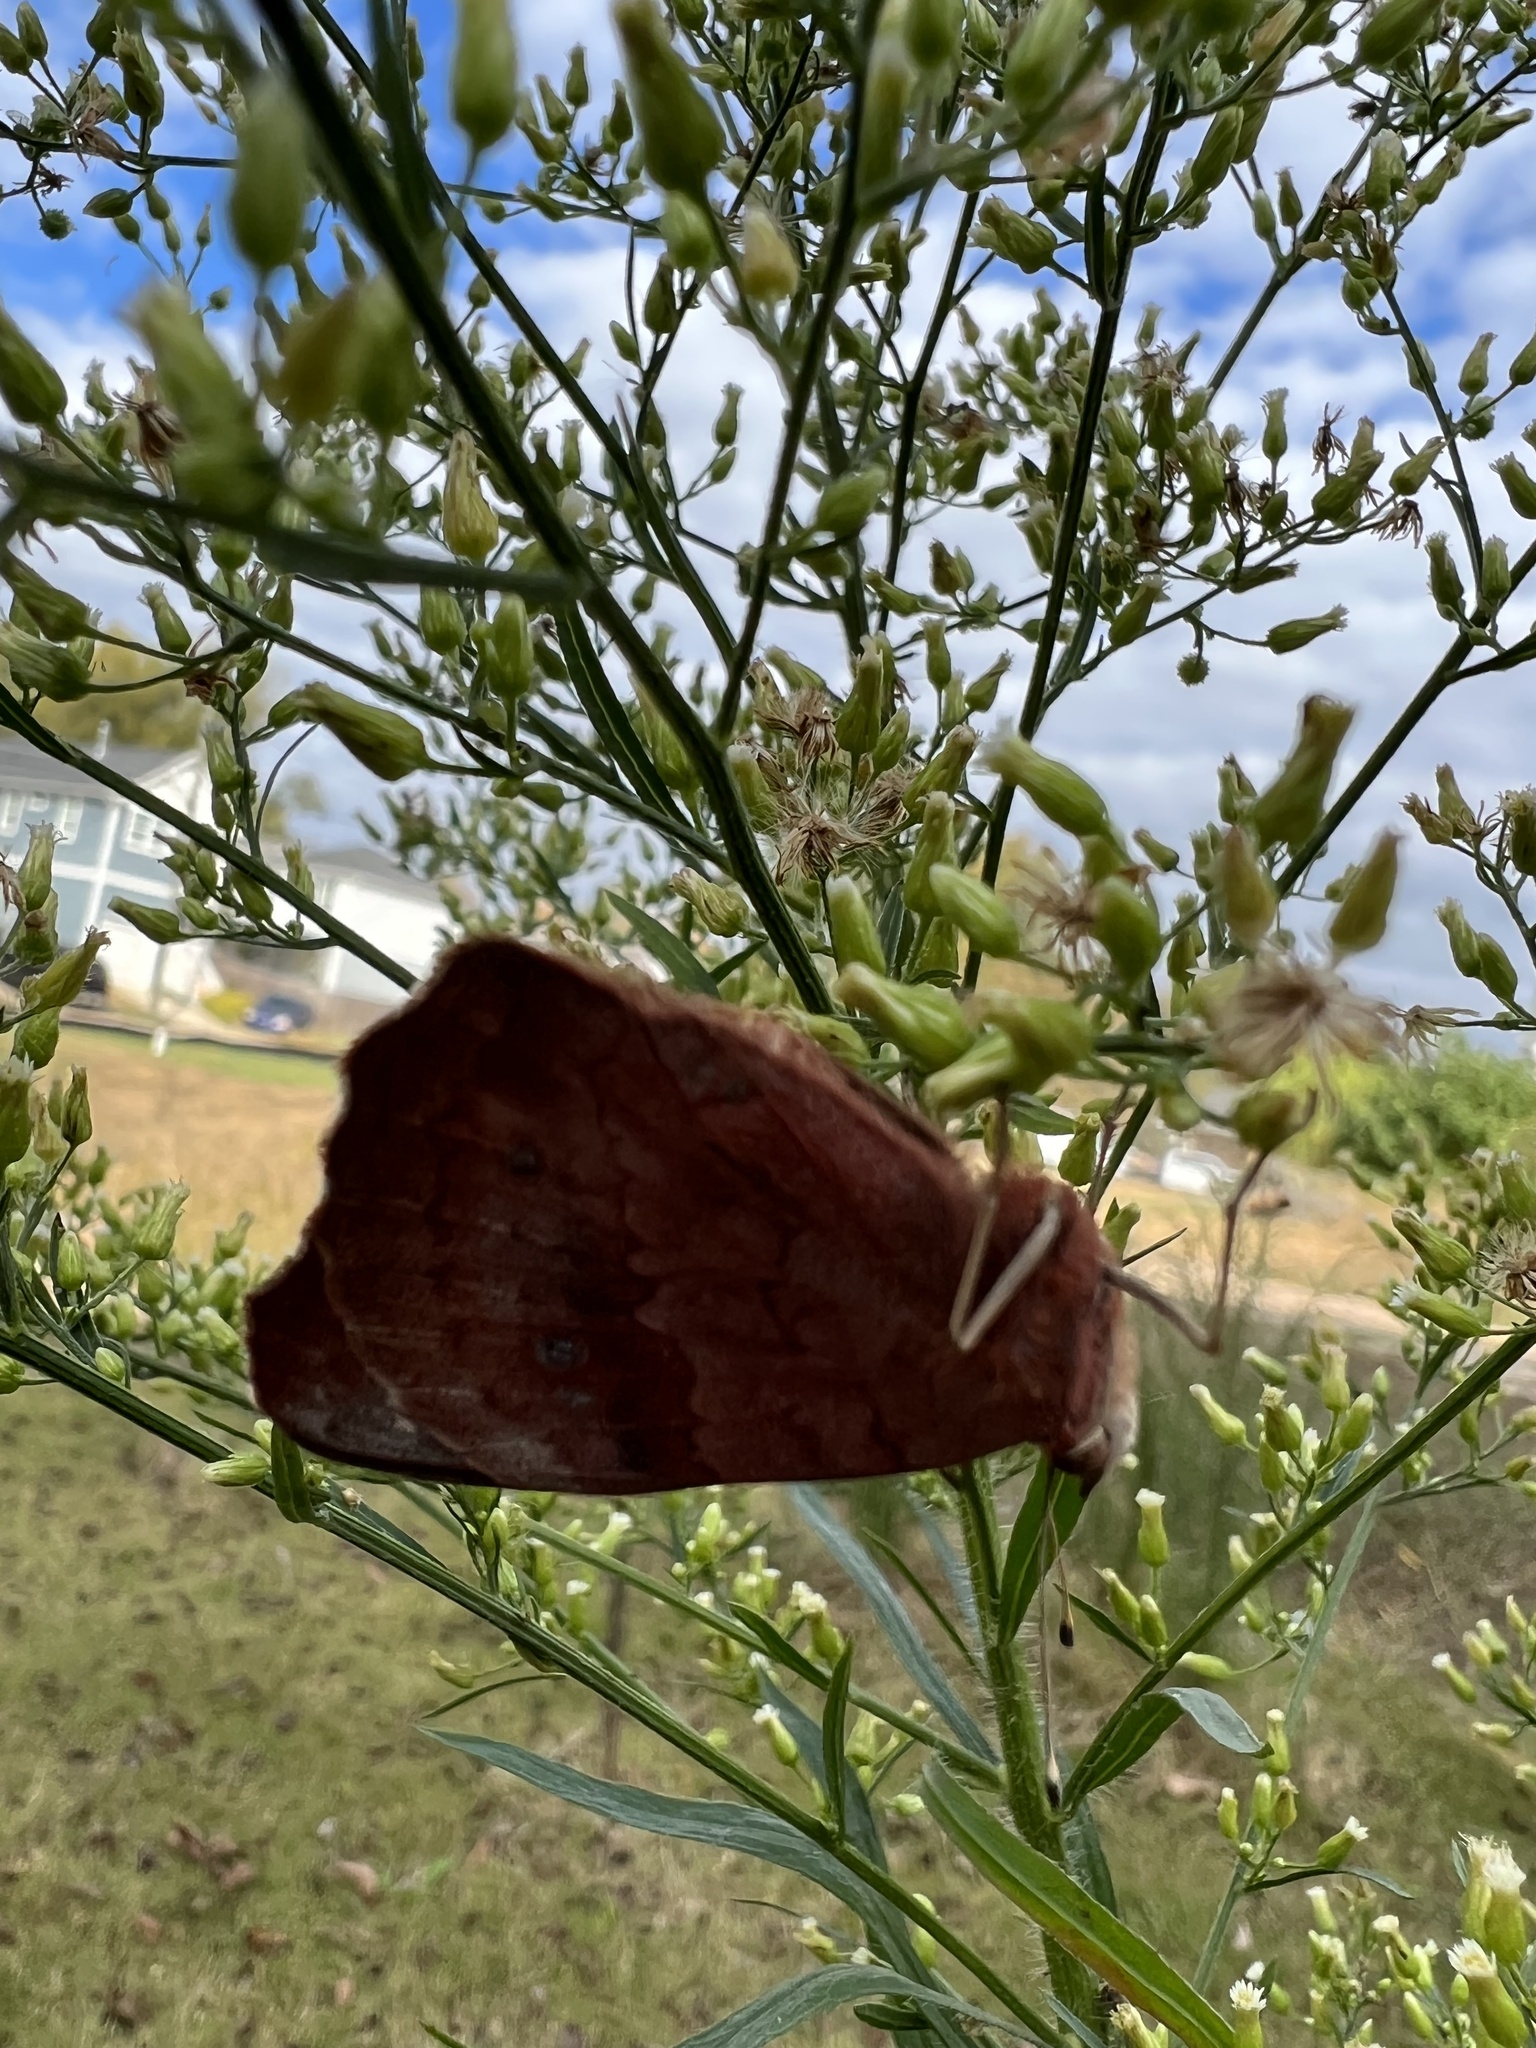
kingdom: Animalia
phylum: Arthropoda
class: Insecta
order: Lepidoptera
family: Nymphalidae
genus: Junonia
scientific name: Junonia coenia
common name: Common buckeye
